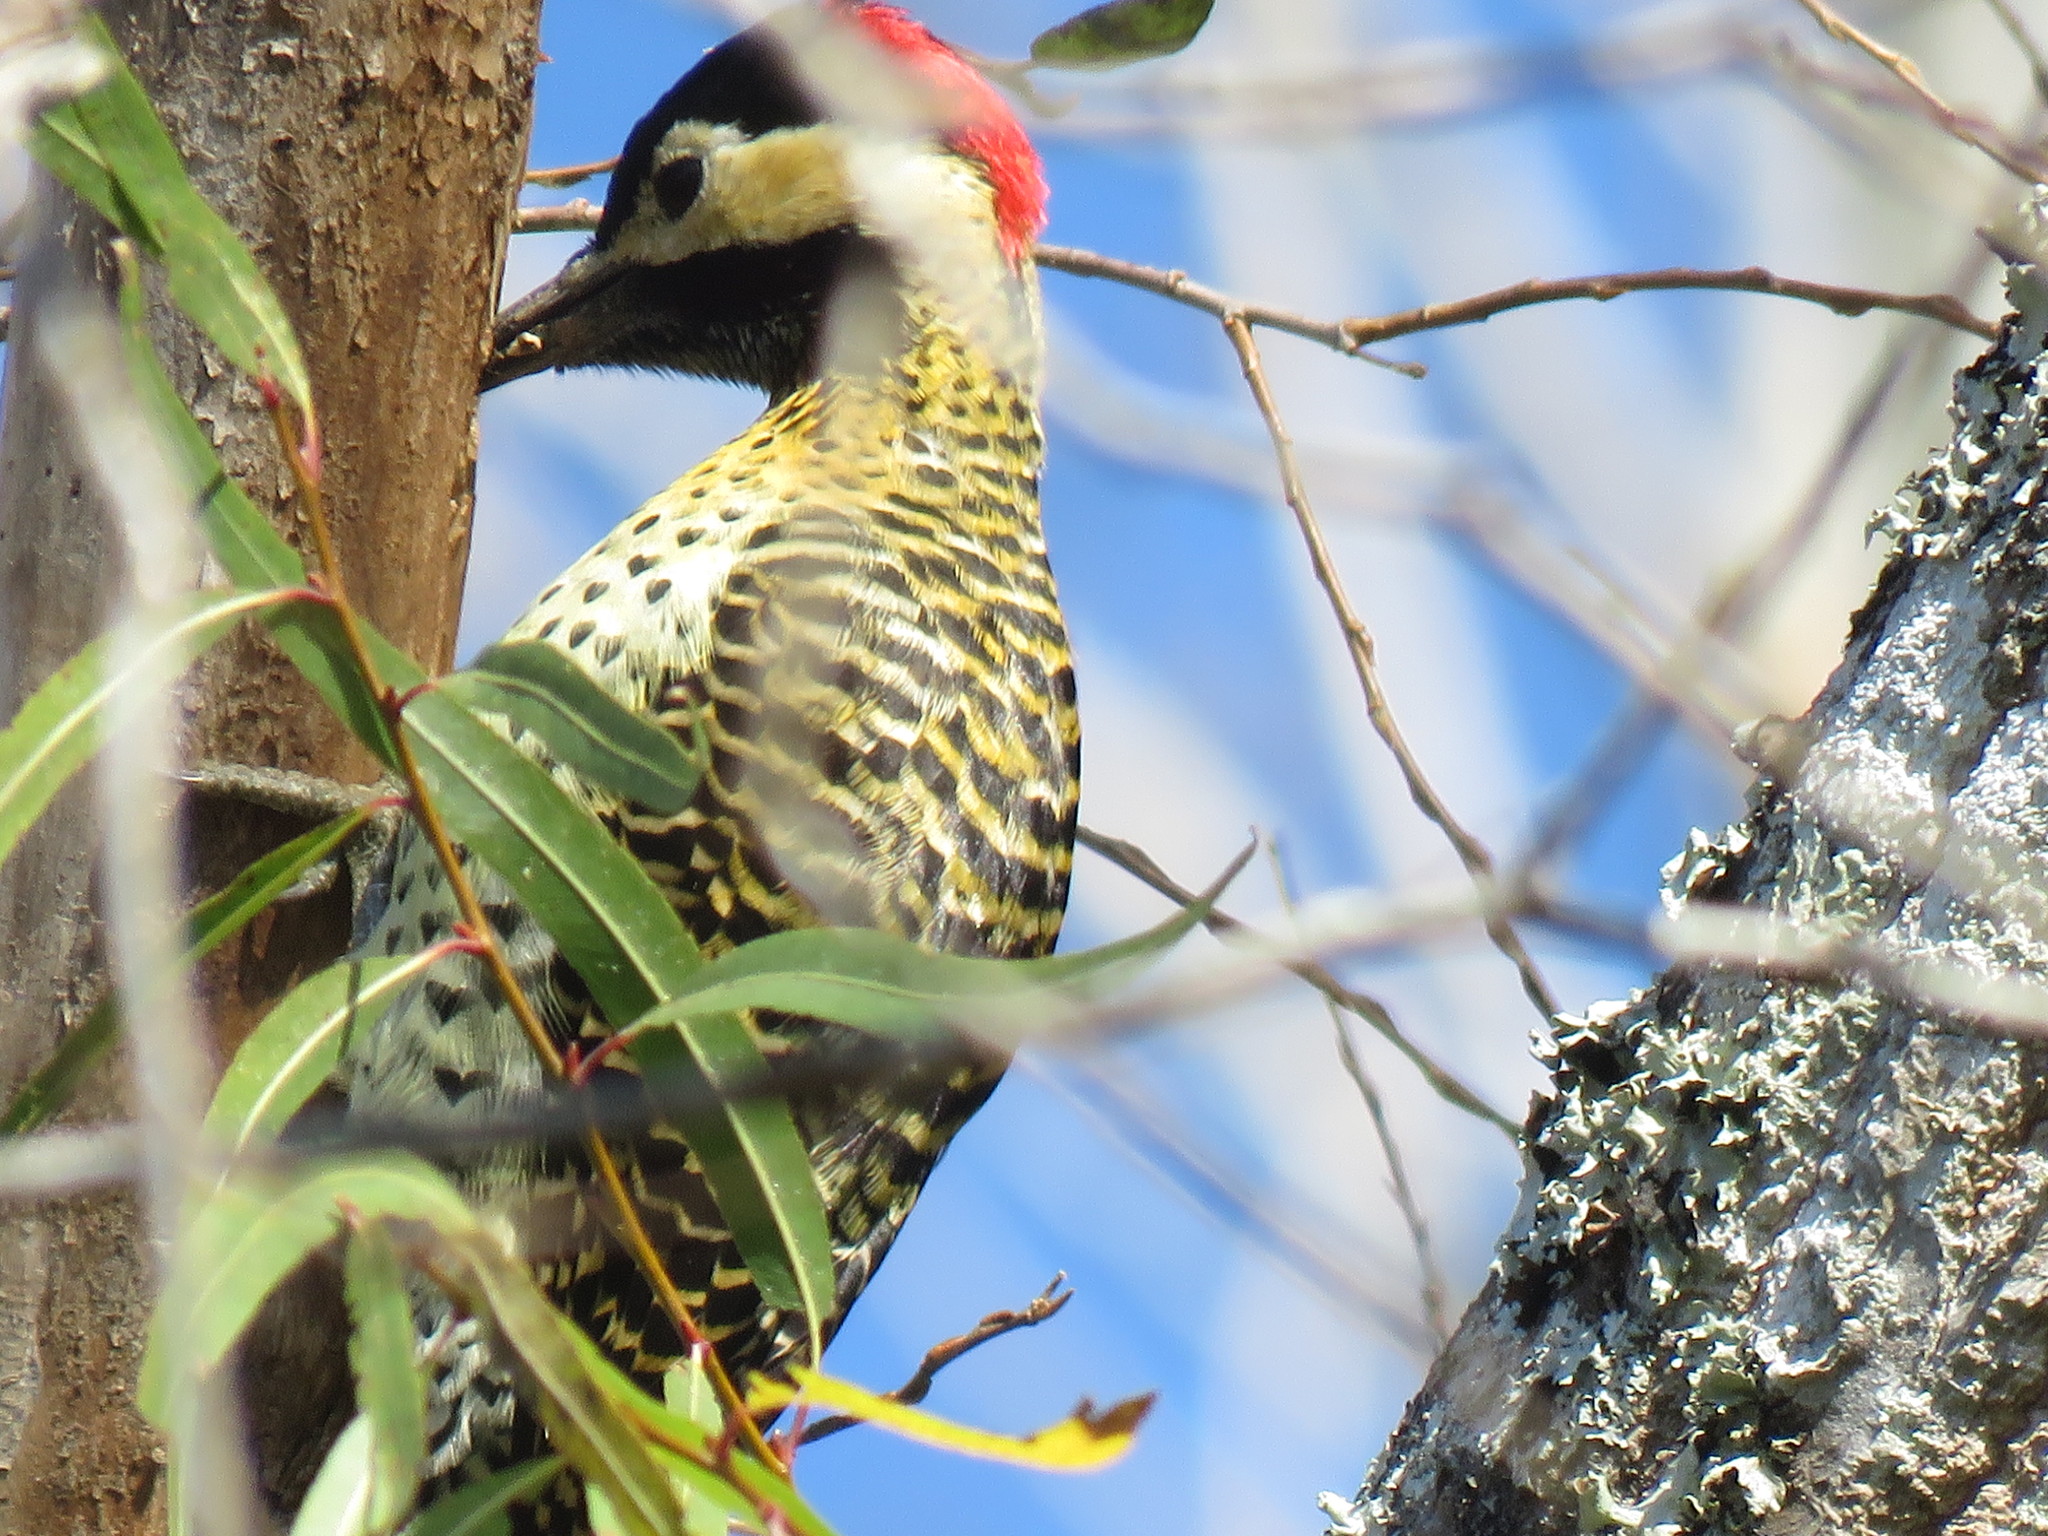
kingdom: Animalia
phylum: Chordata
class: Aves
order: Piciformes
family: Picidae
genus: Colaptes
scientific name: Colaptes melanochloros
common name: Green-barred woodpecker
